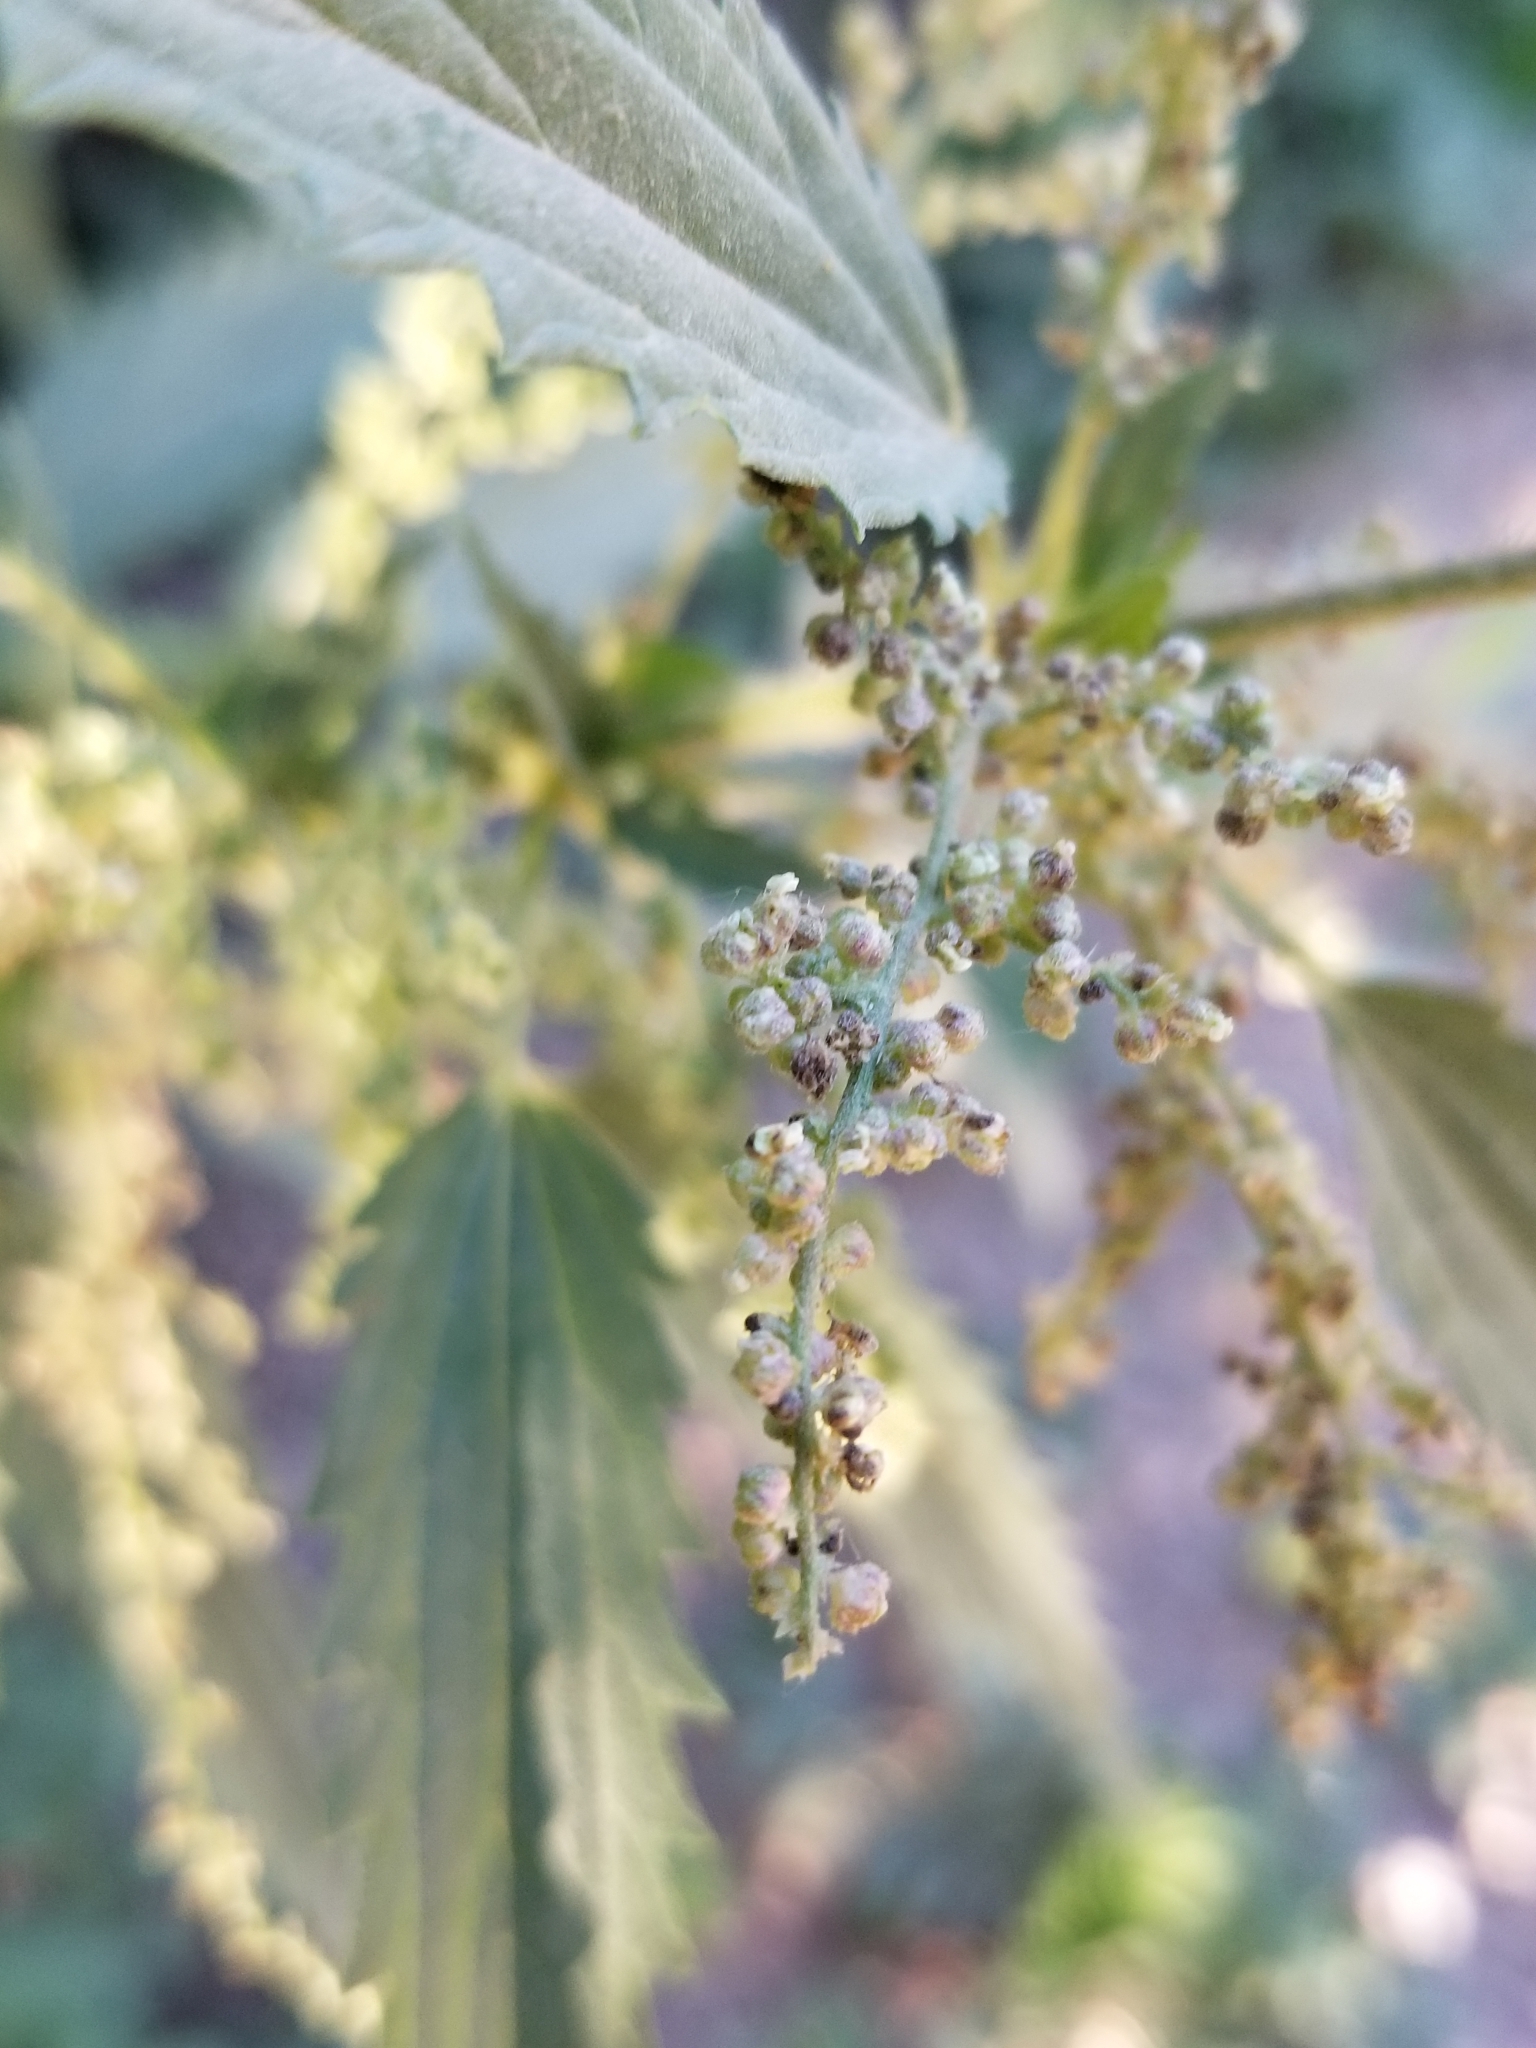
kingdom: Plantae
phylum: Tracheophyta
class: Magnoliopsida
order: Rosales
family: Urticaceae
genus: Urtica
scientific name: Urtica dioica
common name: Common nettle
